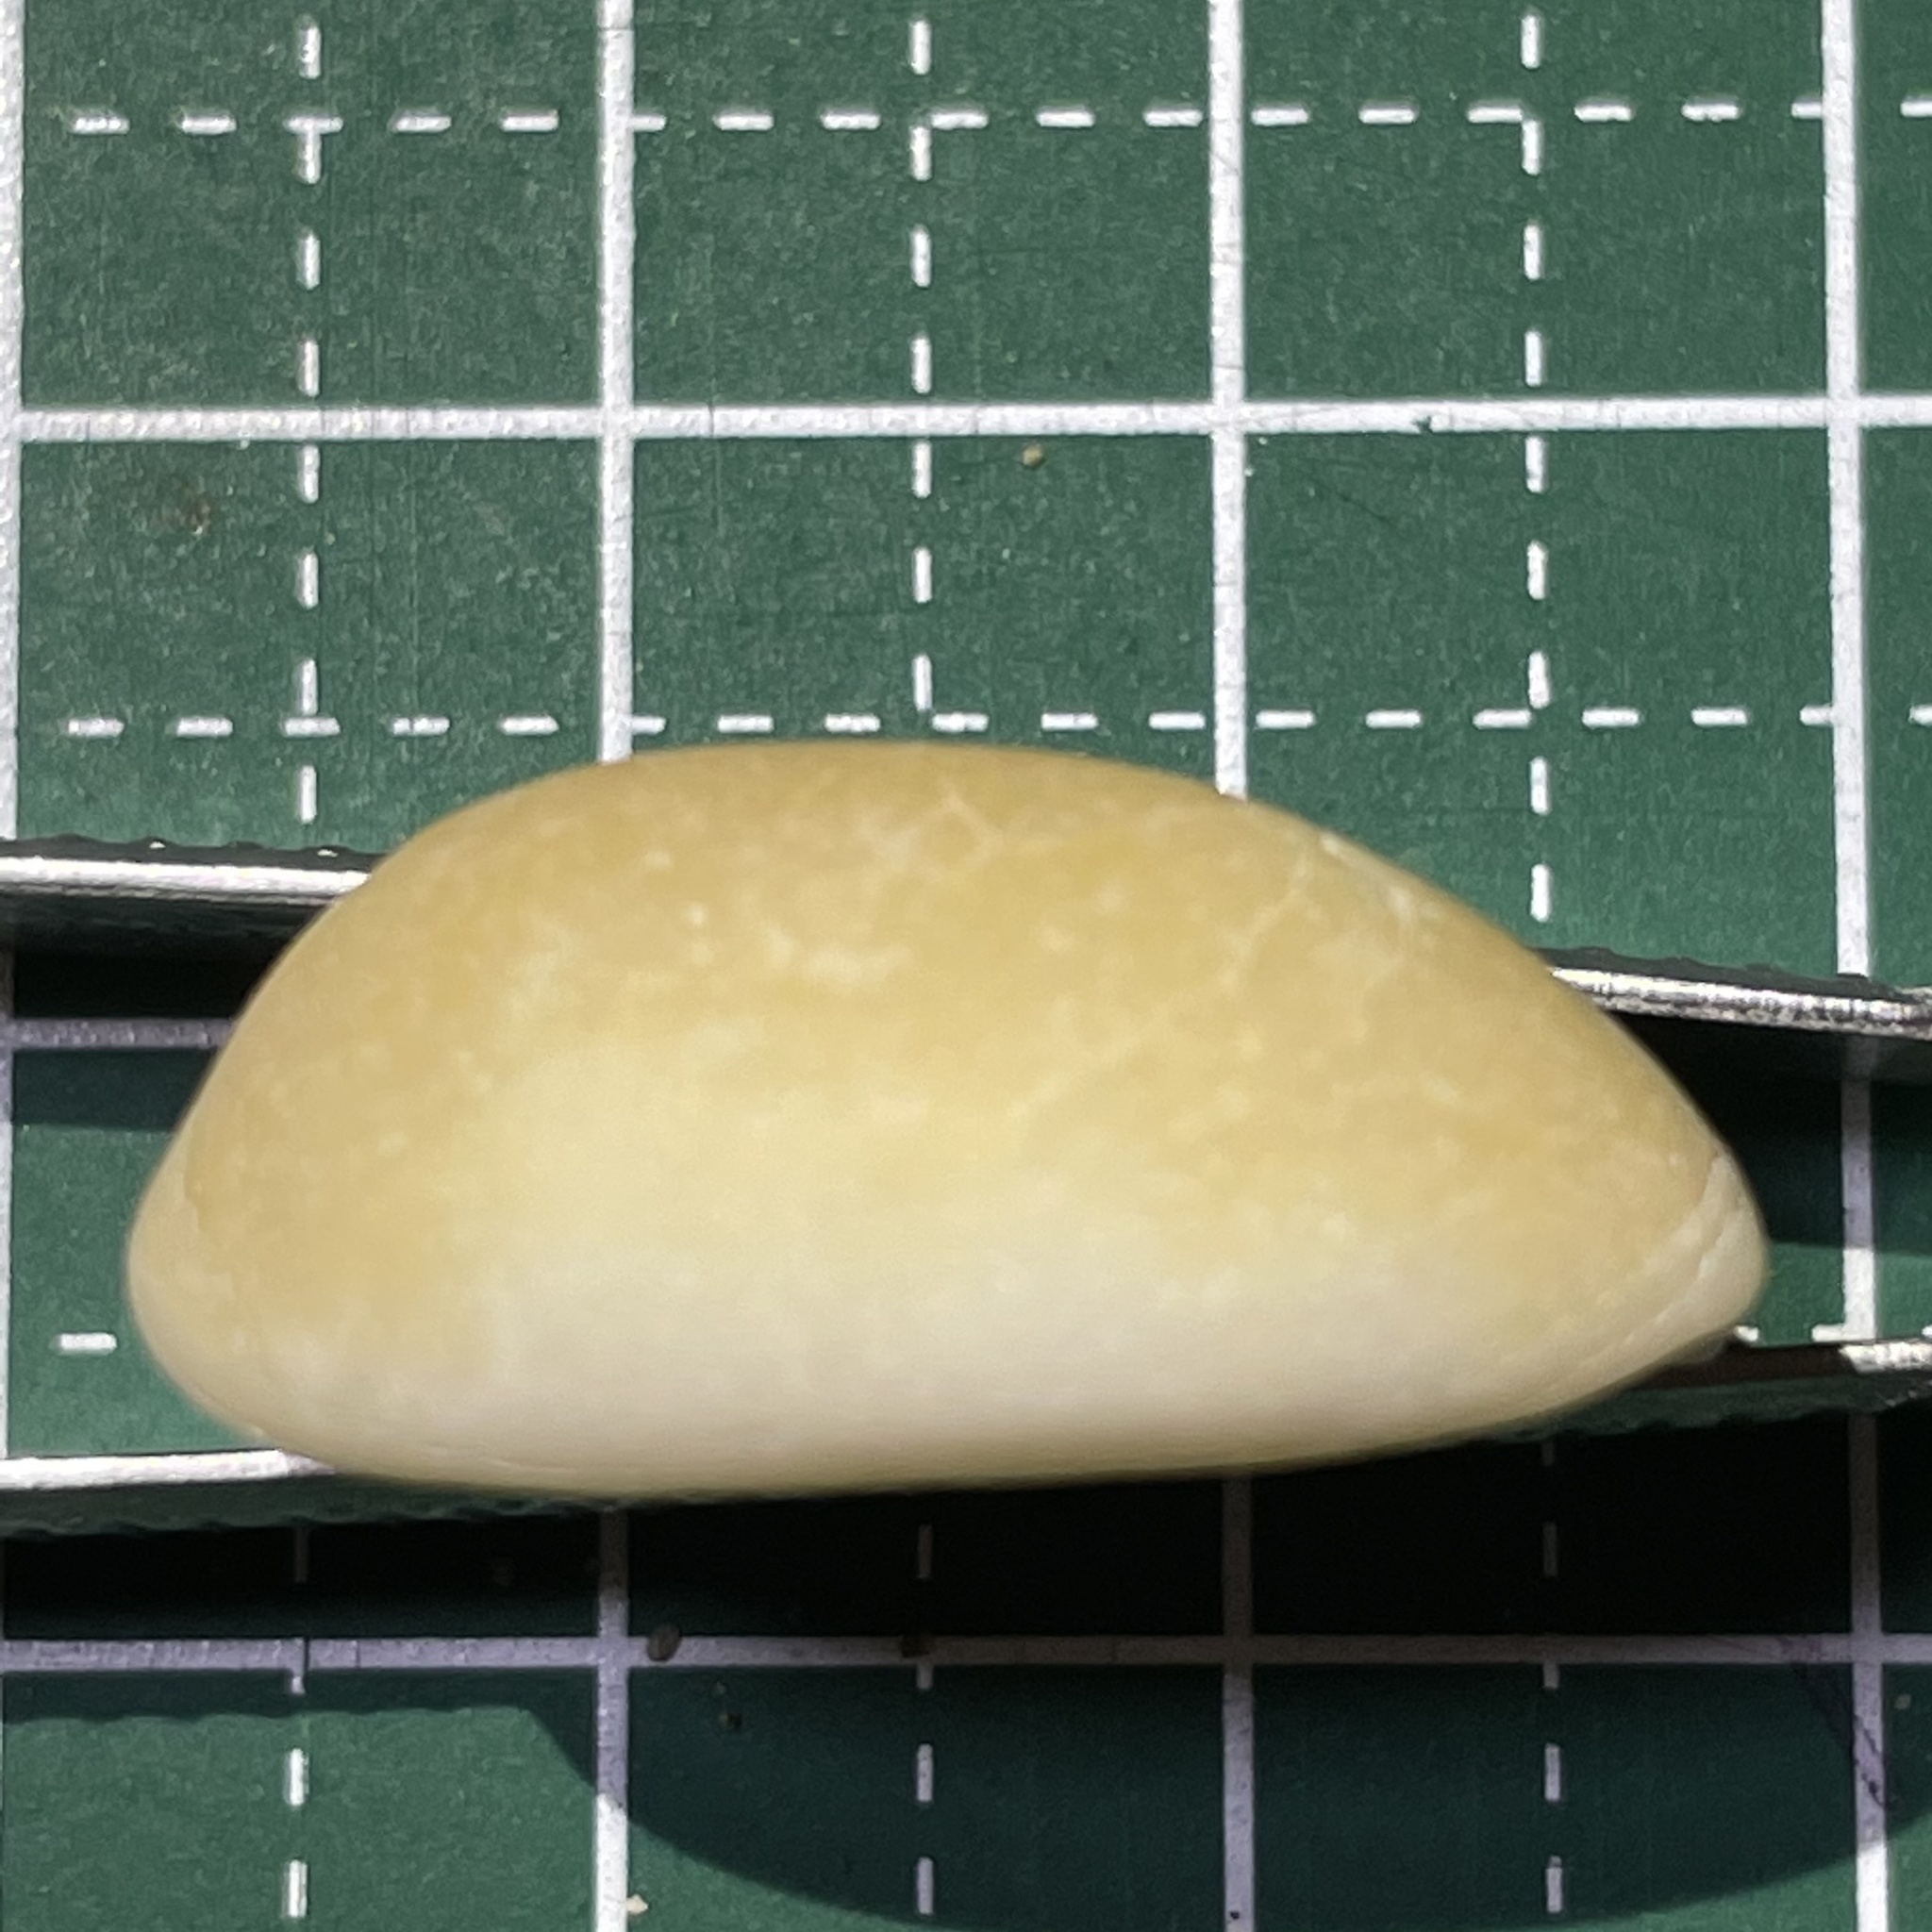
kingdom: Animalia
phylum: Mollusca
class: Gastropoda
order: Littorinimorpha
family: Cypraeidae
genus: Lyncina
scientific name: Lyncina carneola
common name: Purple-mouthed cowry
